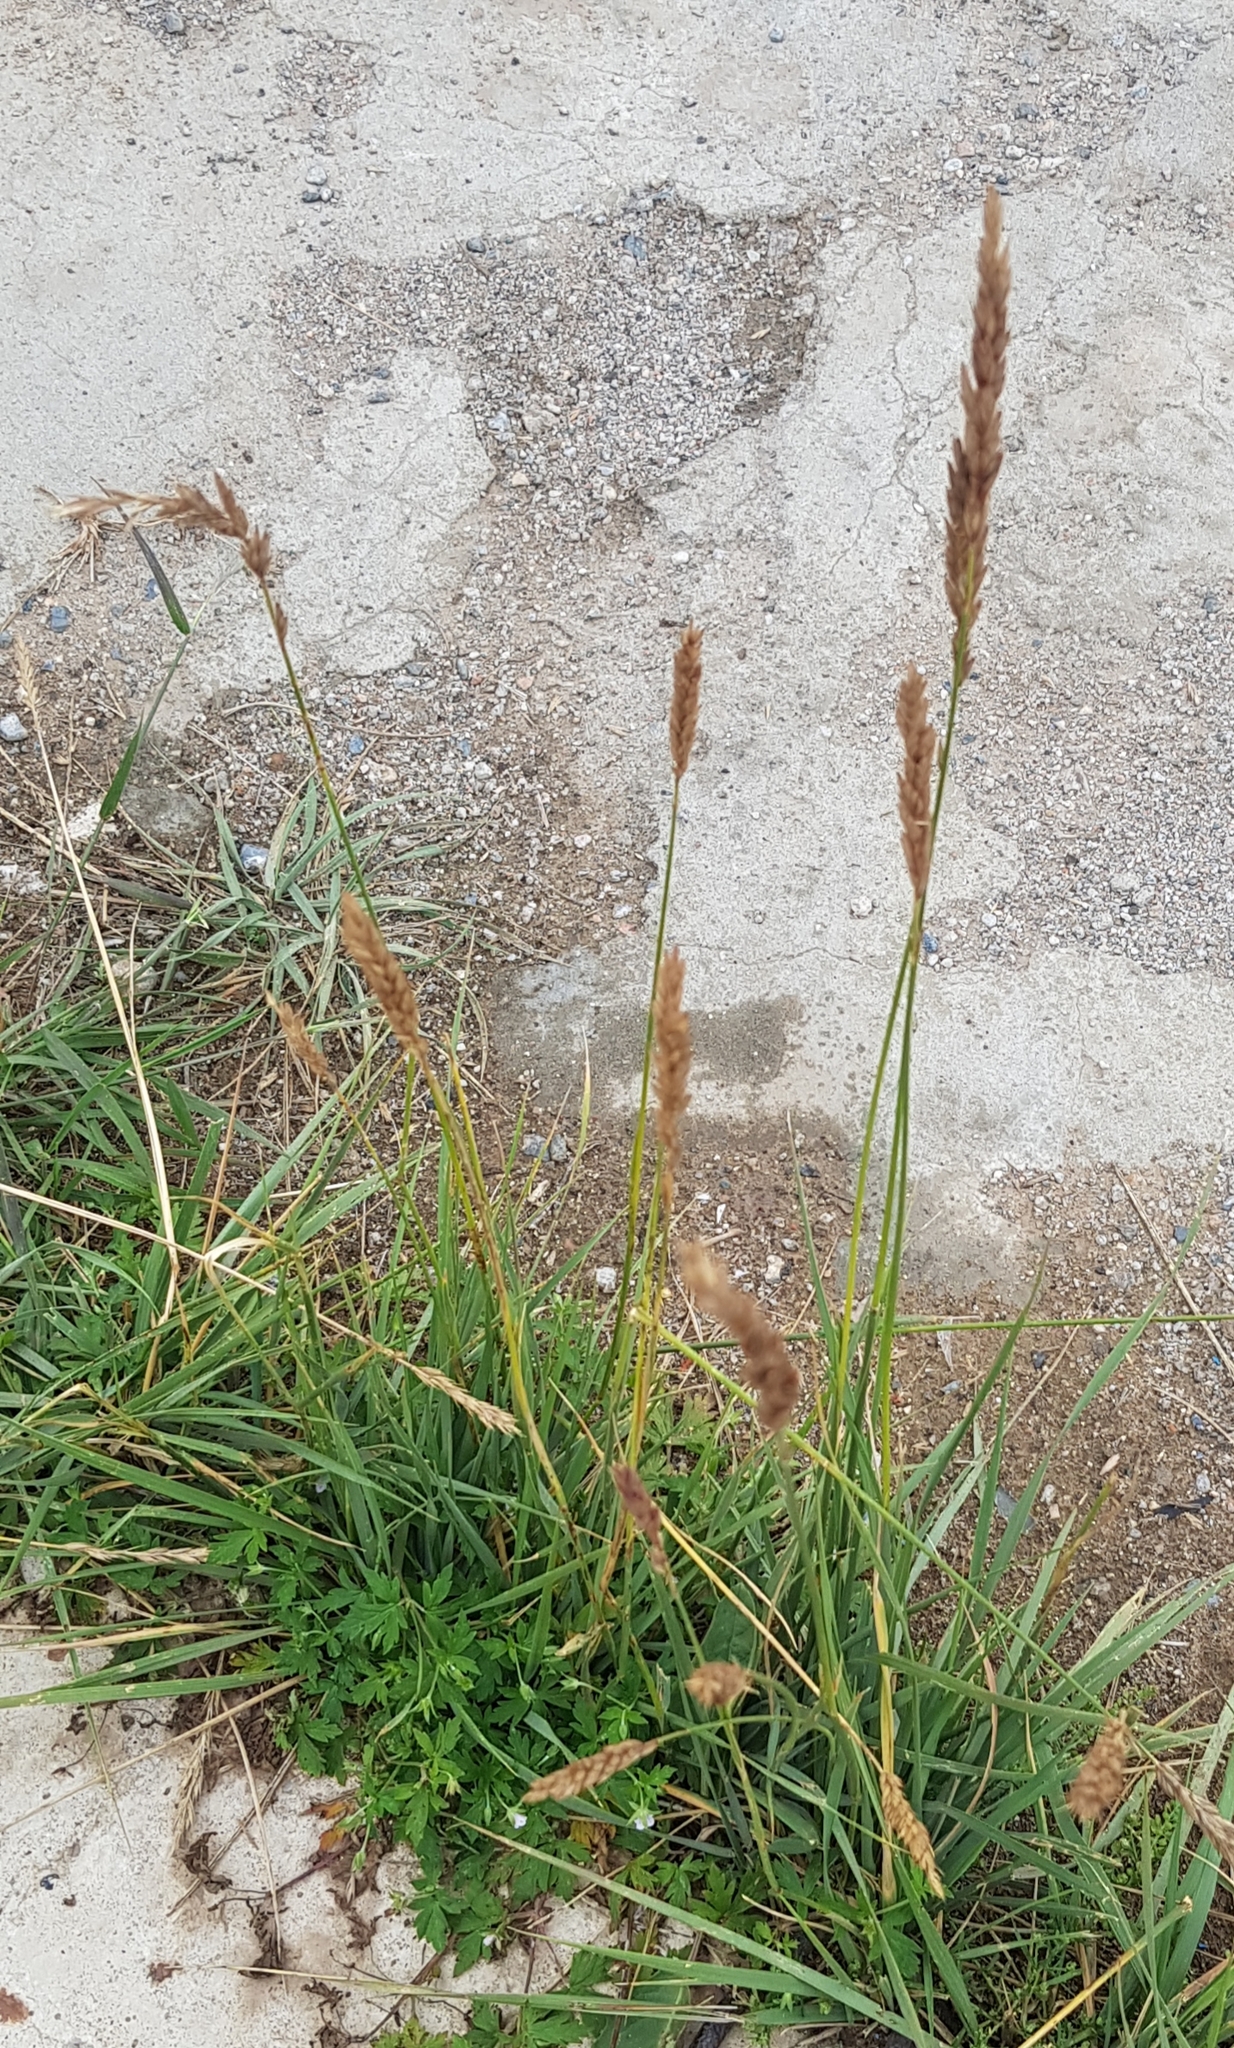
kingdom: Plantae
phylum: Tracheophyta
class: Liliopsida
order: Poales
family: Poaceae
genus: Koeleria
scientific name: Koeleria spicata
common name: Mountain trisetum
